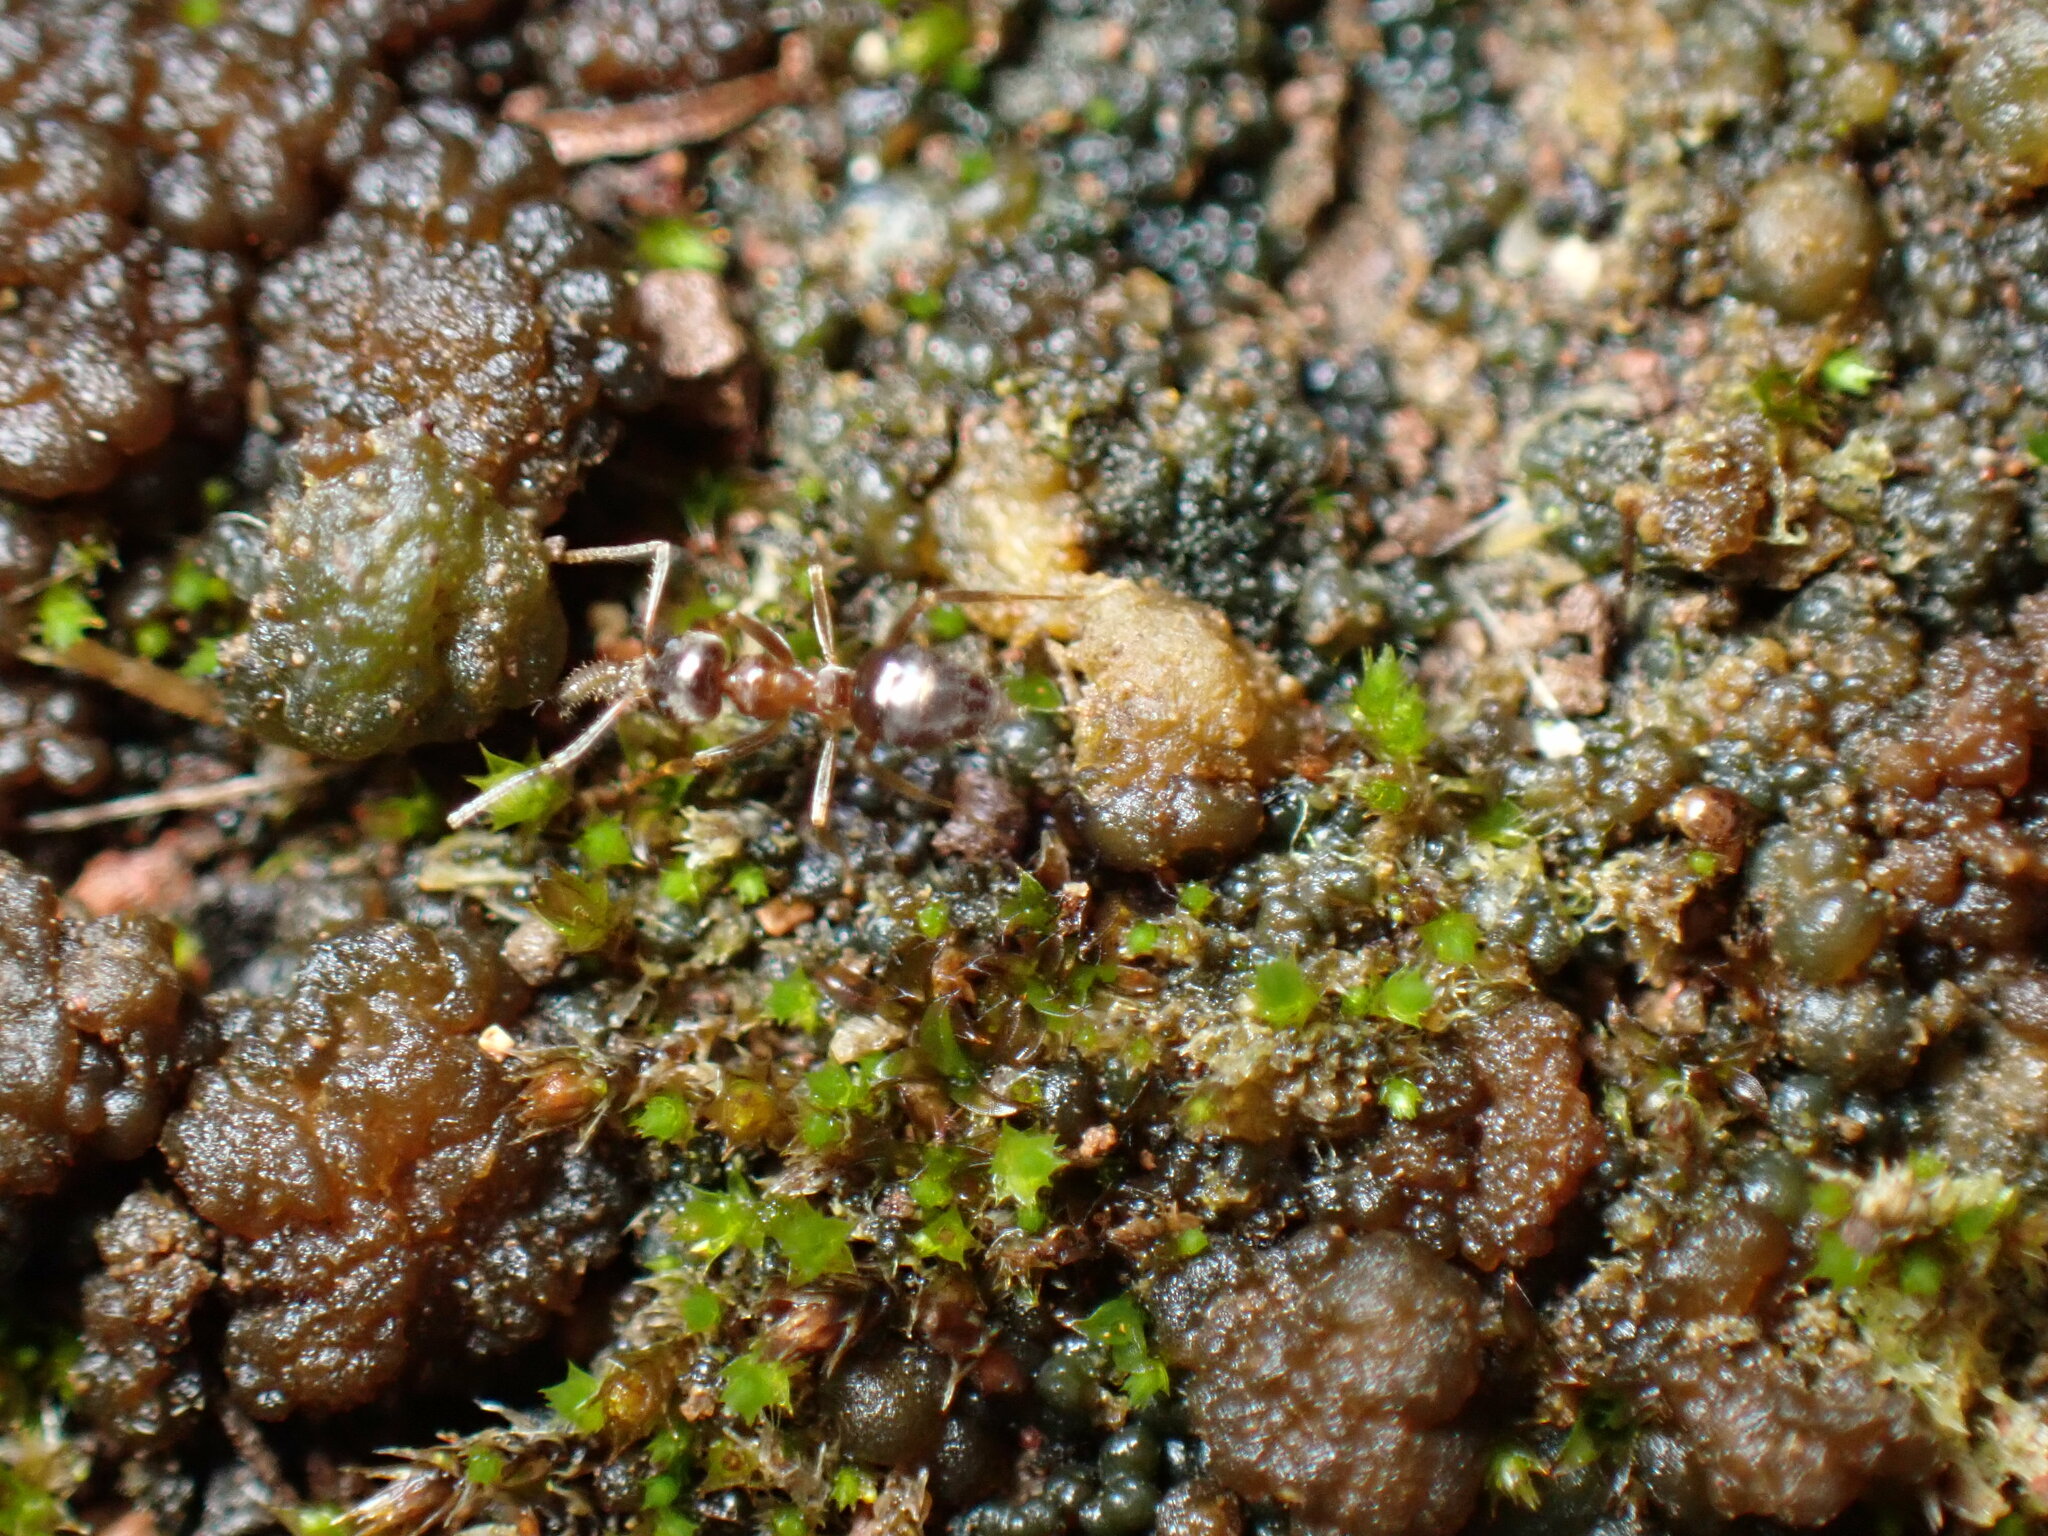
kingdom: Animalia
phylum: Arthropoda
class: Insecta
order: Hymenoptera
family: Formicidae
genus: Paratrechina
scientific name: Paratrechina jaegerskioeldi
